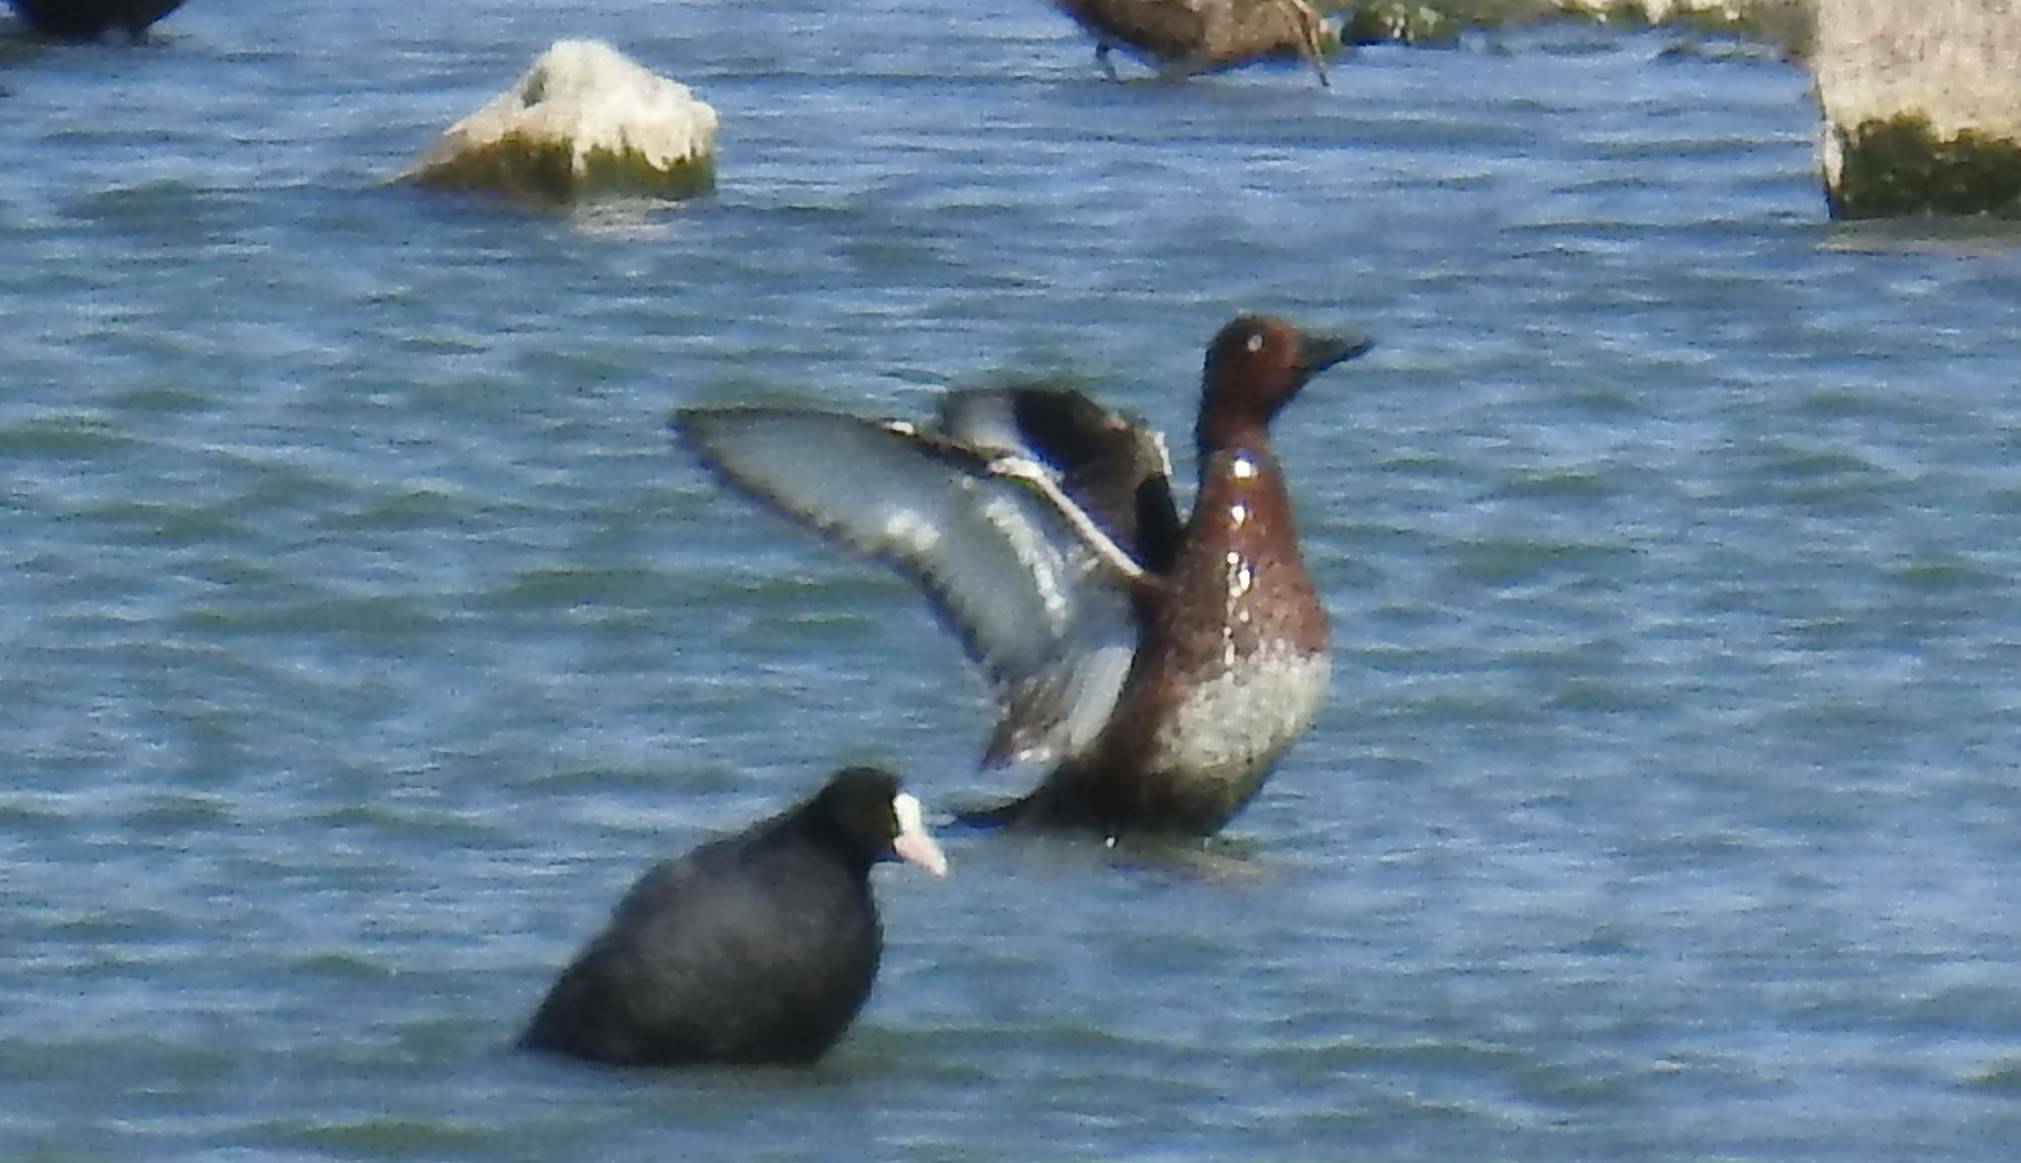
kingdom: Animalia
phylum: Chordata
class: Aves
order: Anseriformes
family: Anatidae
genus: Aythya
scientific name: Aythya nyroca
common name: Ferruginous duck
